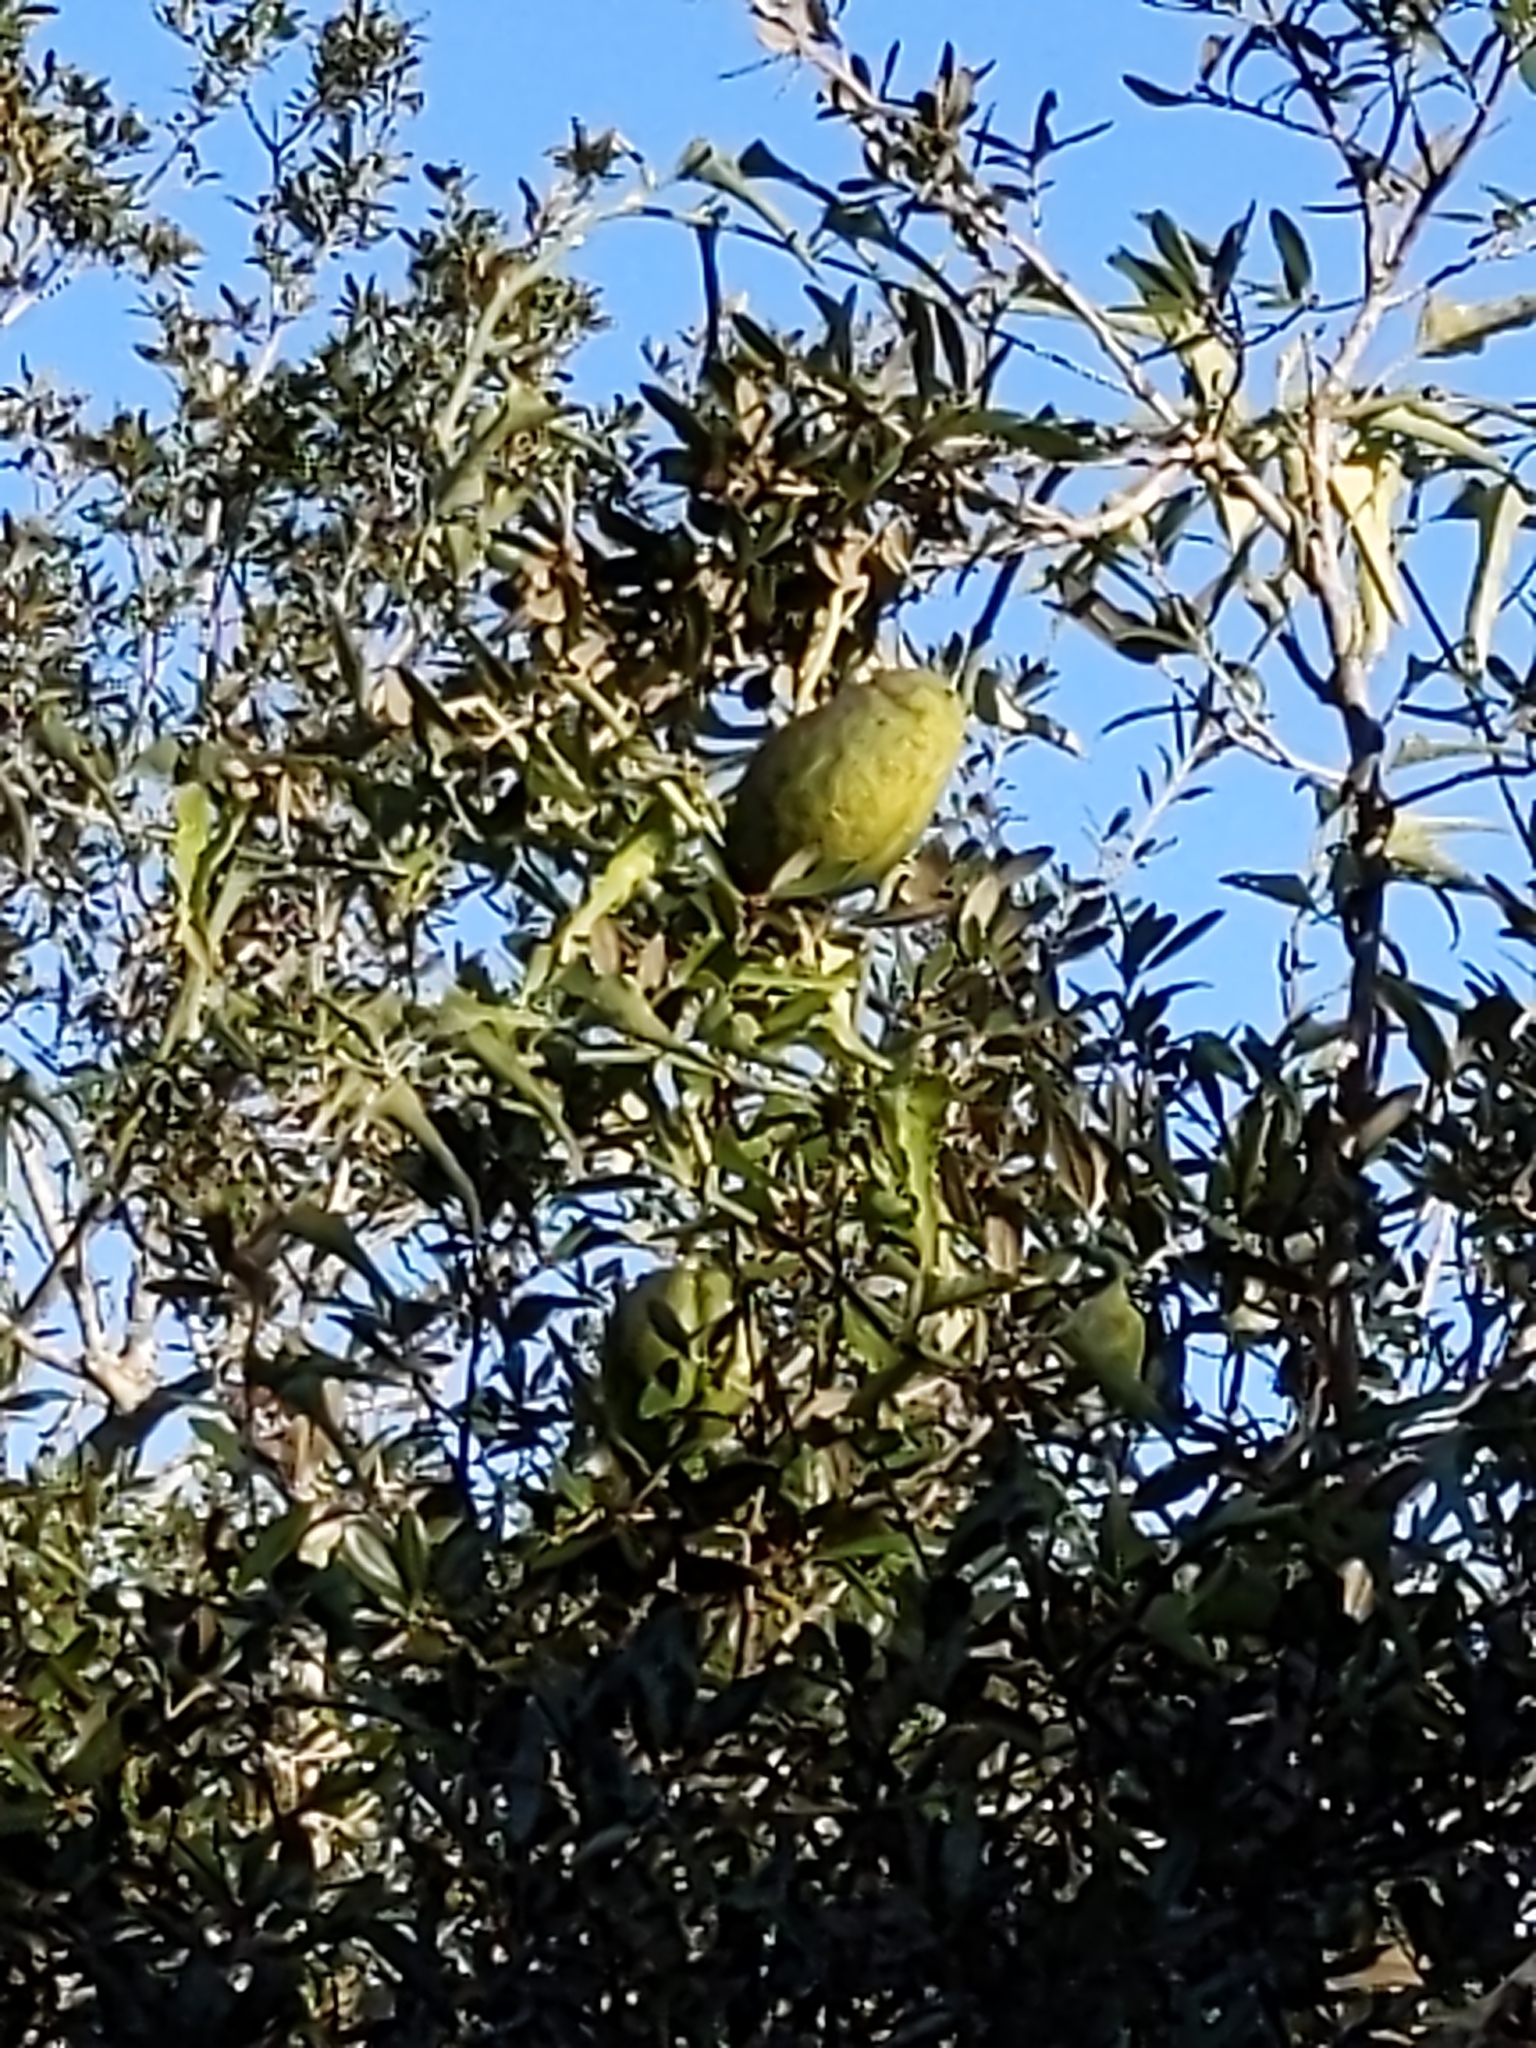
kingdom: Plantae
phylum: Tracheophyta
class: Magnoliopsida
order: Gentianales
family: Apocynaceae
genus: Araujia
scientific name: Araujia odorata
